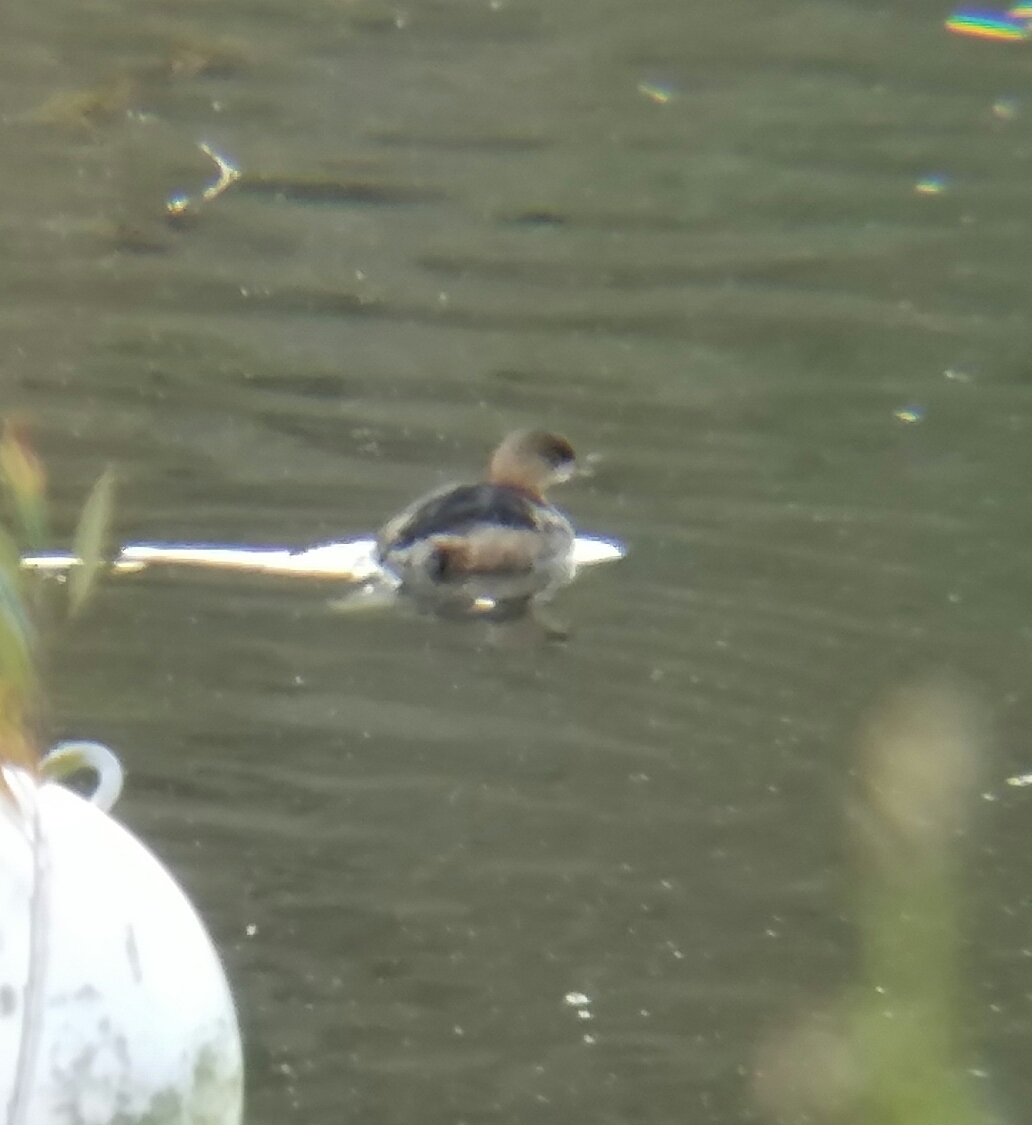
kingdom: Animalia
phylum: Chordata
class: Aves
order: Podicipediformes
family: Podicipedidae
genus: Podilymbus
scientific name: Podilymbus podiceps
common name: Pied-billed grebe
